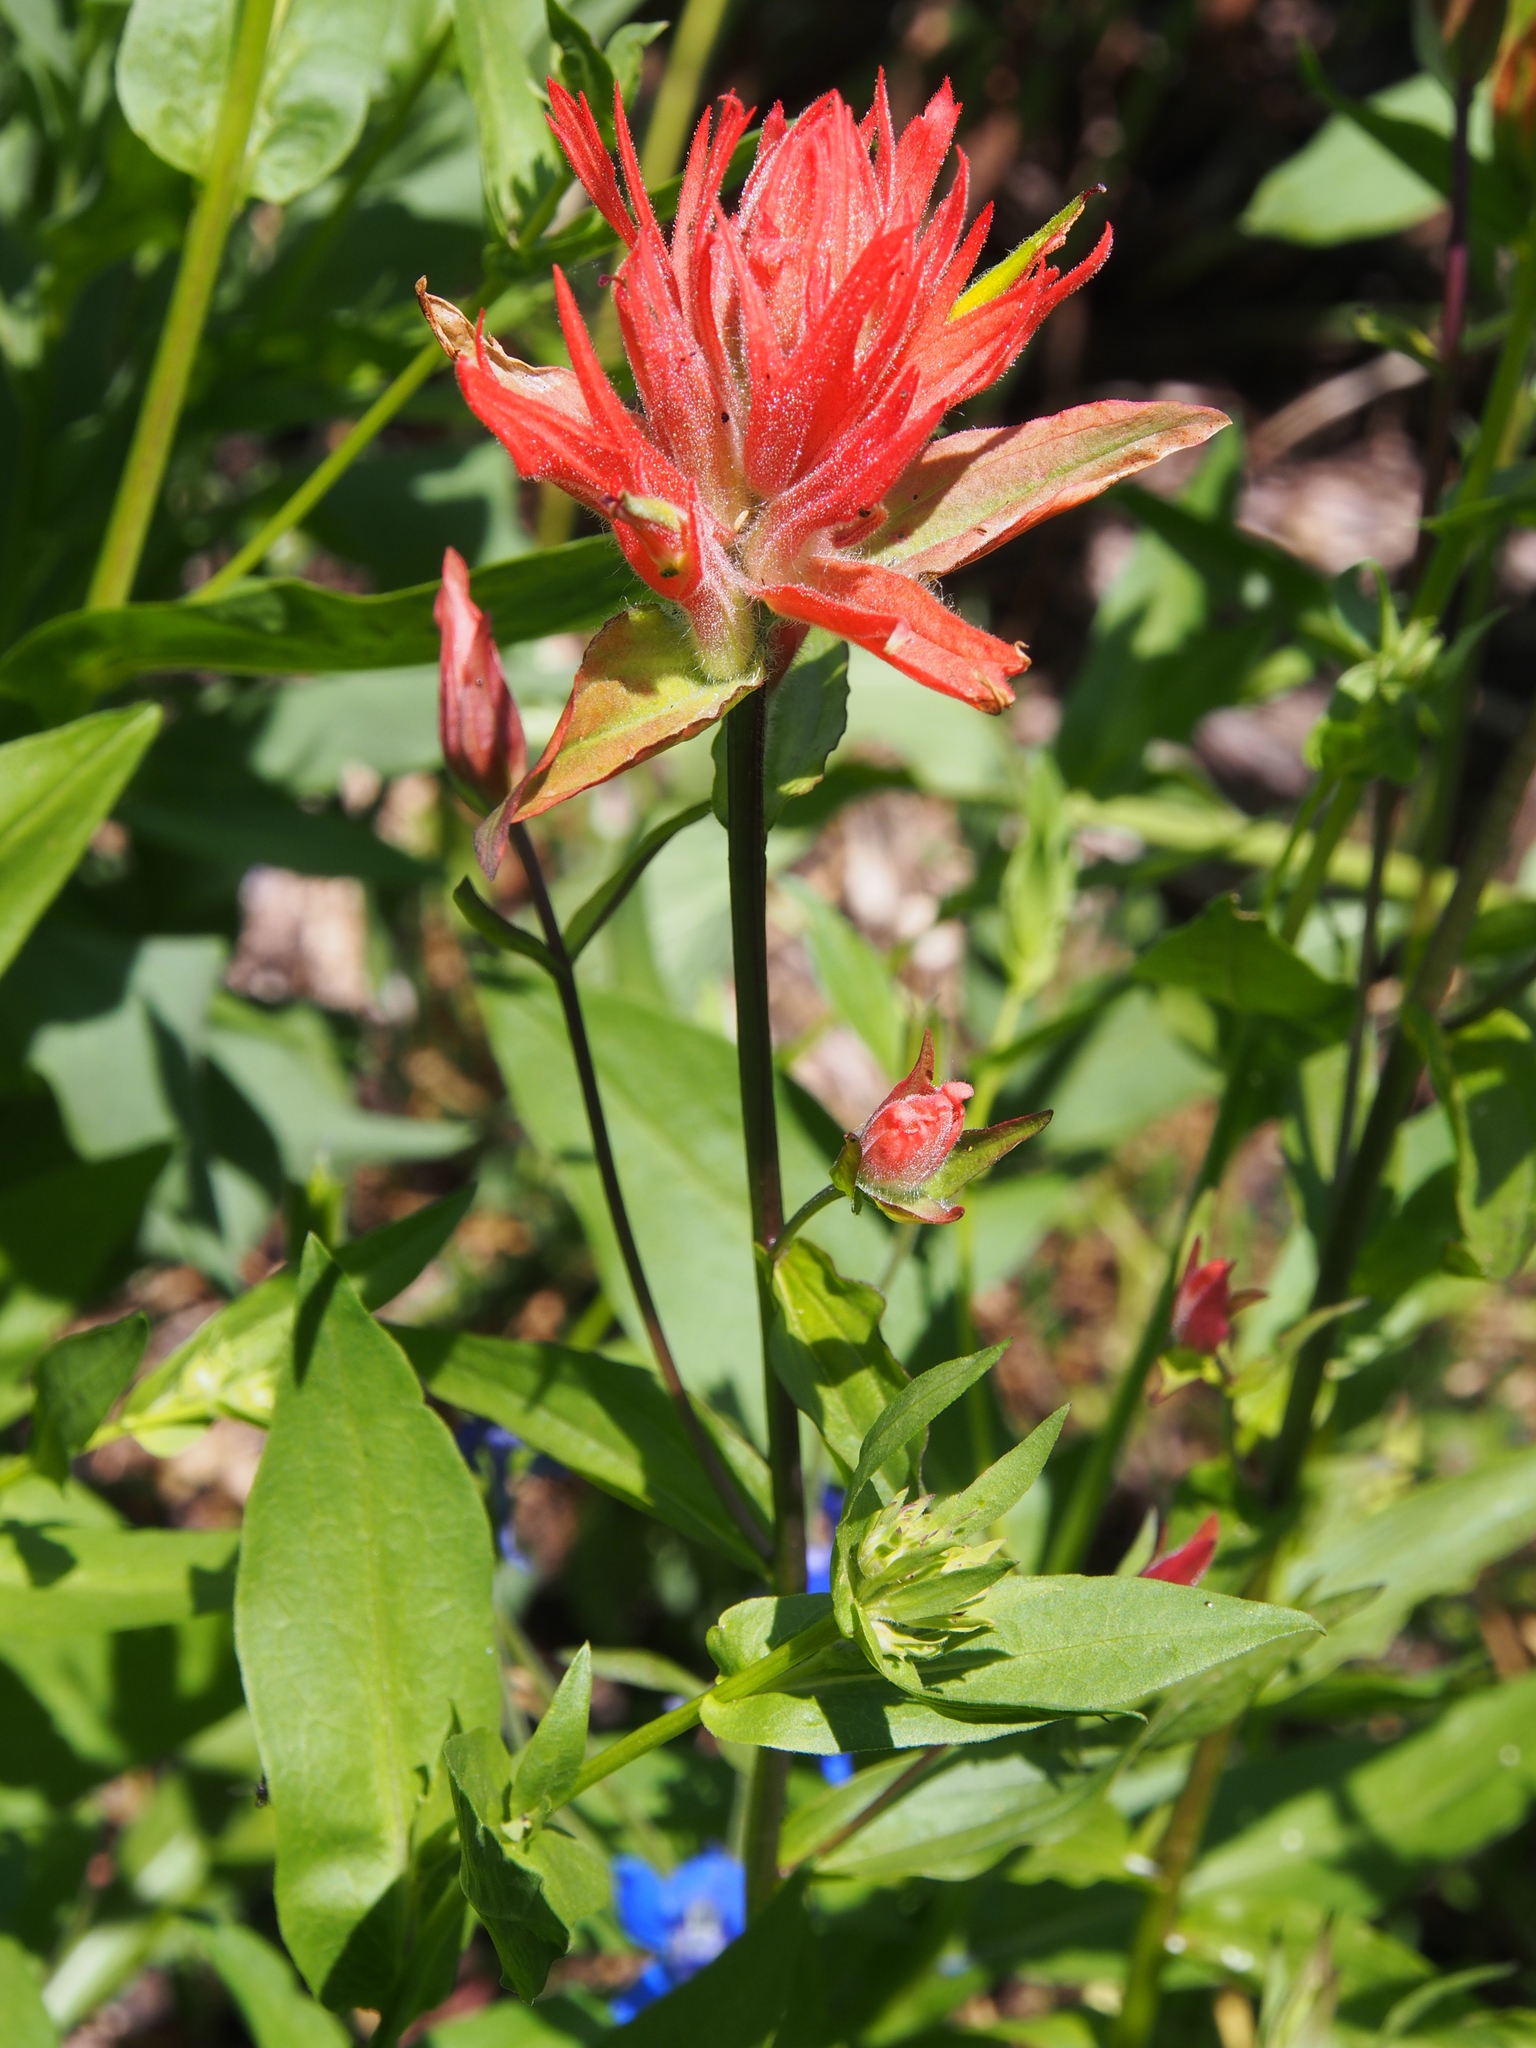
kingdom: Plantae
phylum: Tracheophyta
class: Magnoliopsida
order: Lamiales
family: Orobanchaceae
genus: Castilleja
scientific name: Castilleja miniata
